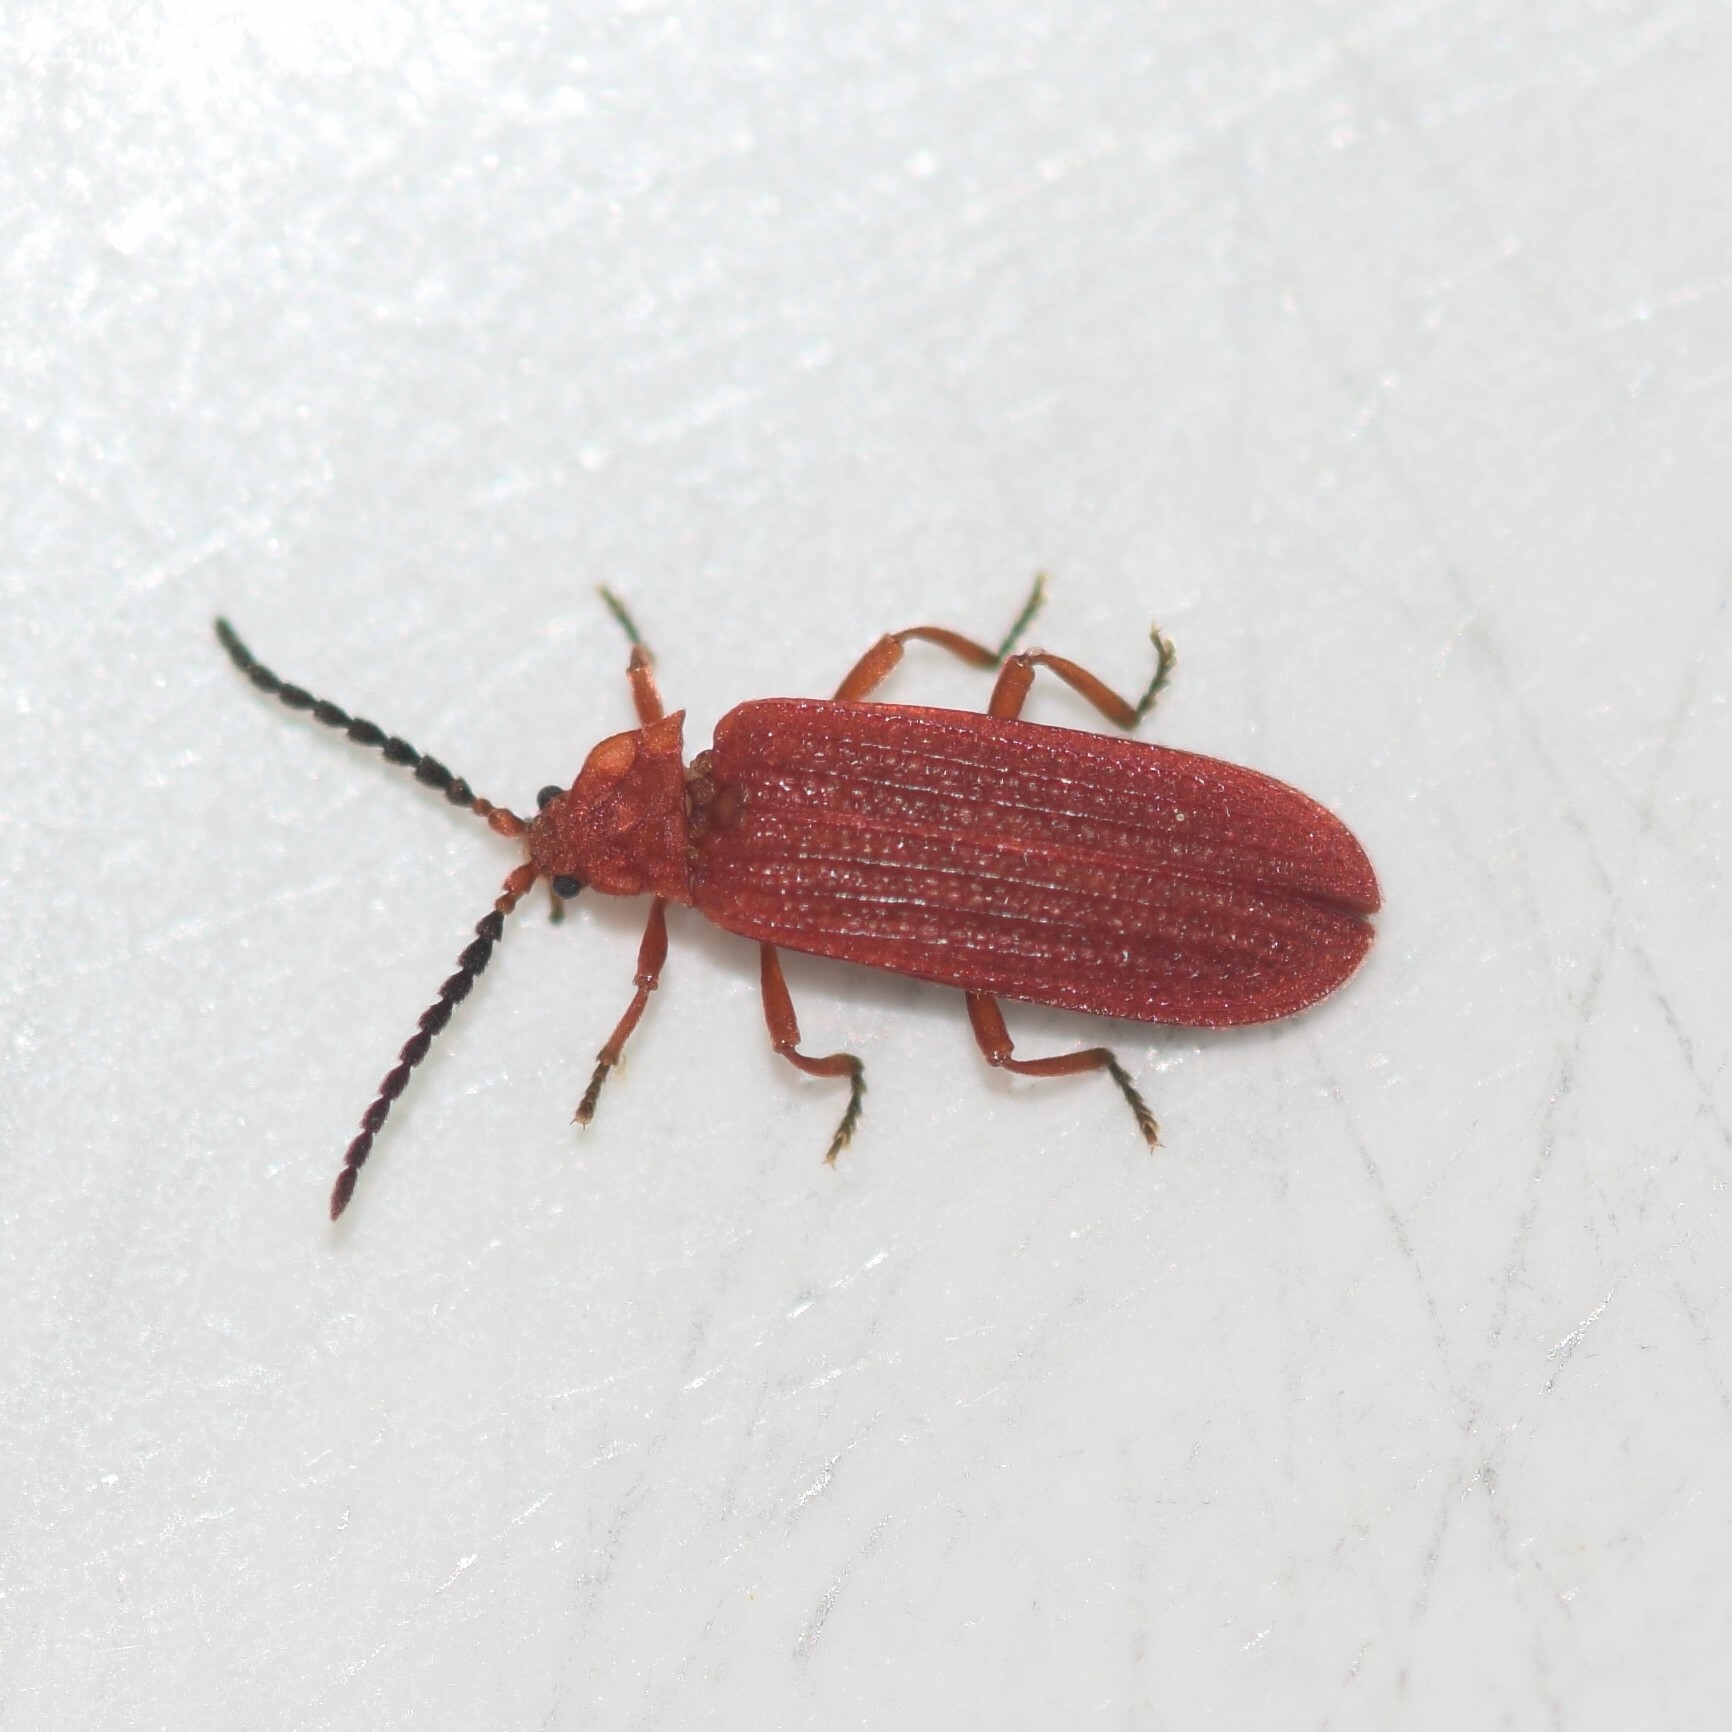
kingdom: Animalia
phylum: Arthropoda
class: Insecta
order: Coleoptera
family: Lycidae
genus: Punicealis
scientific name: Punicealis
